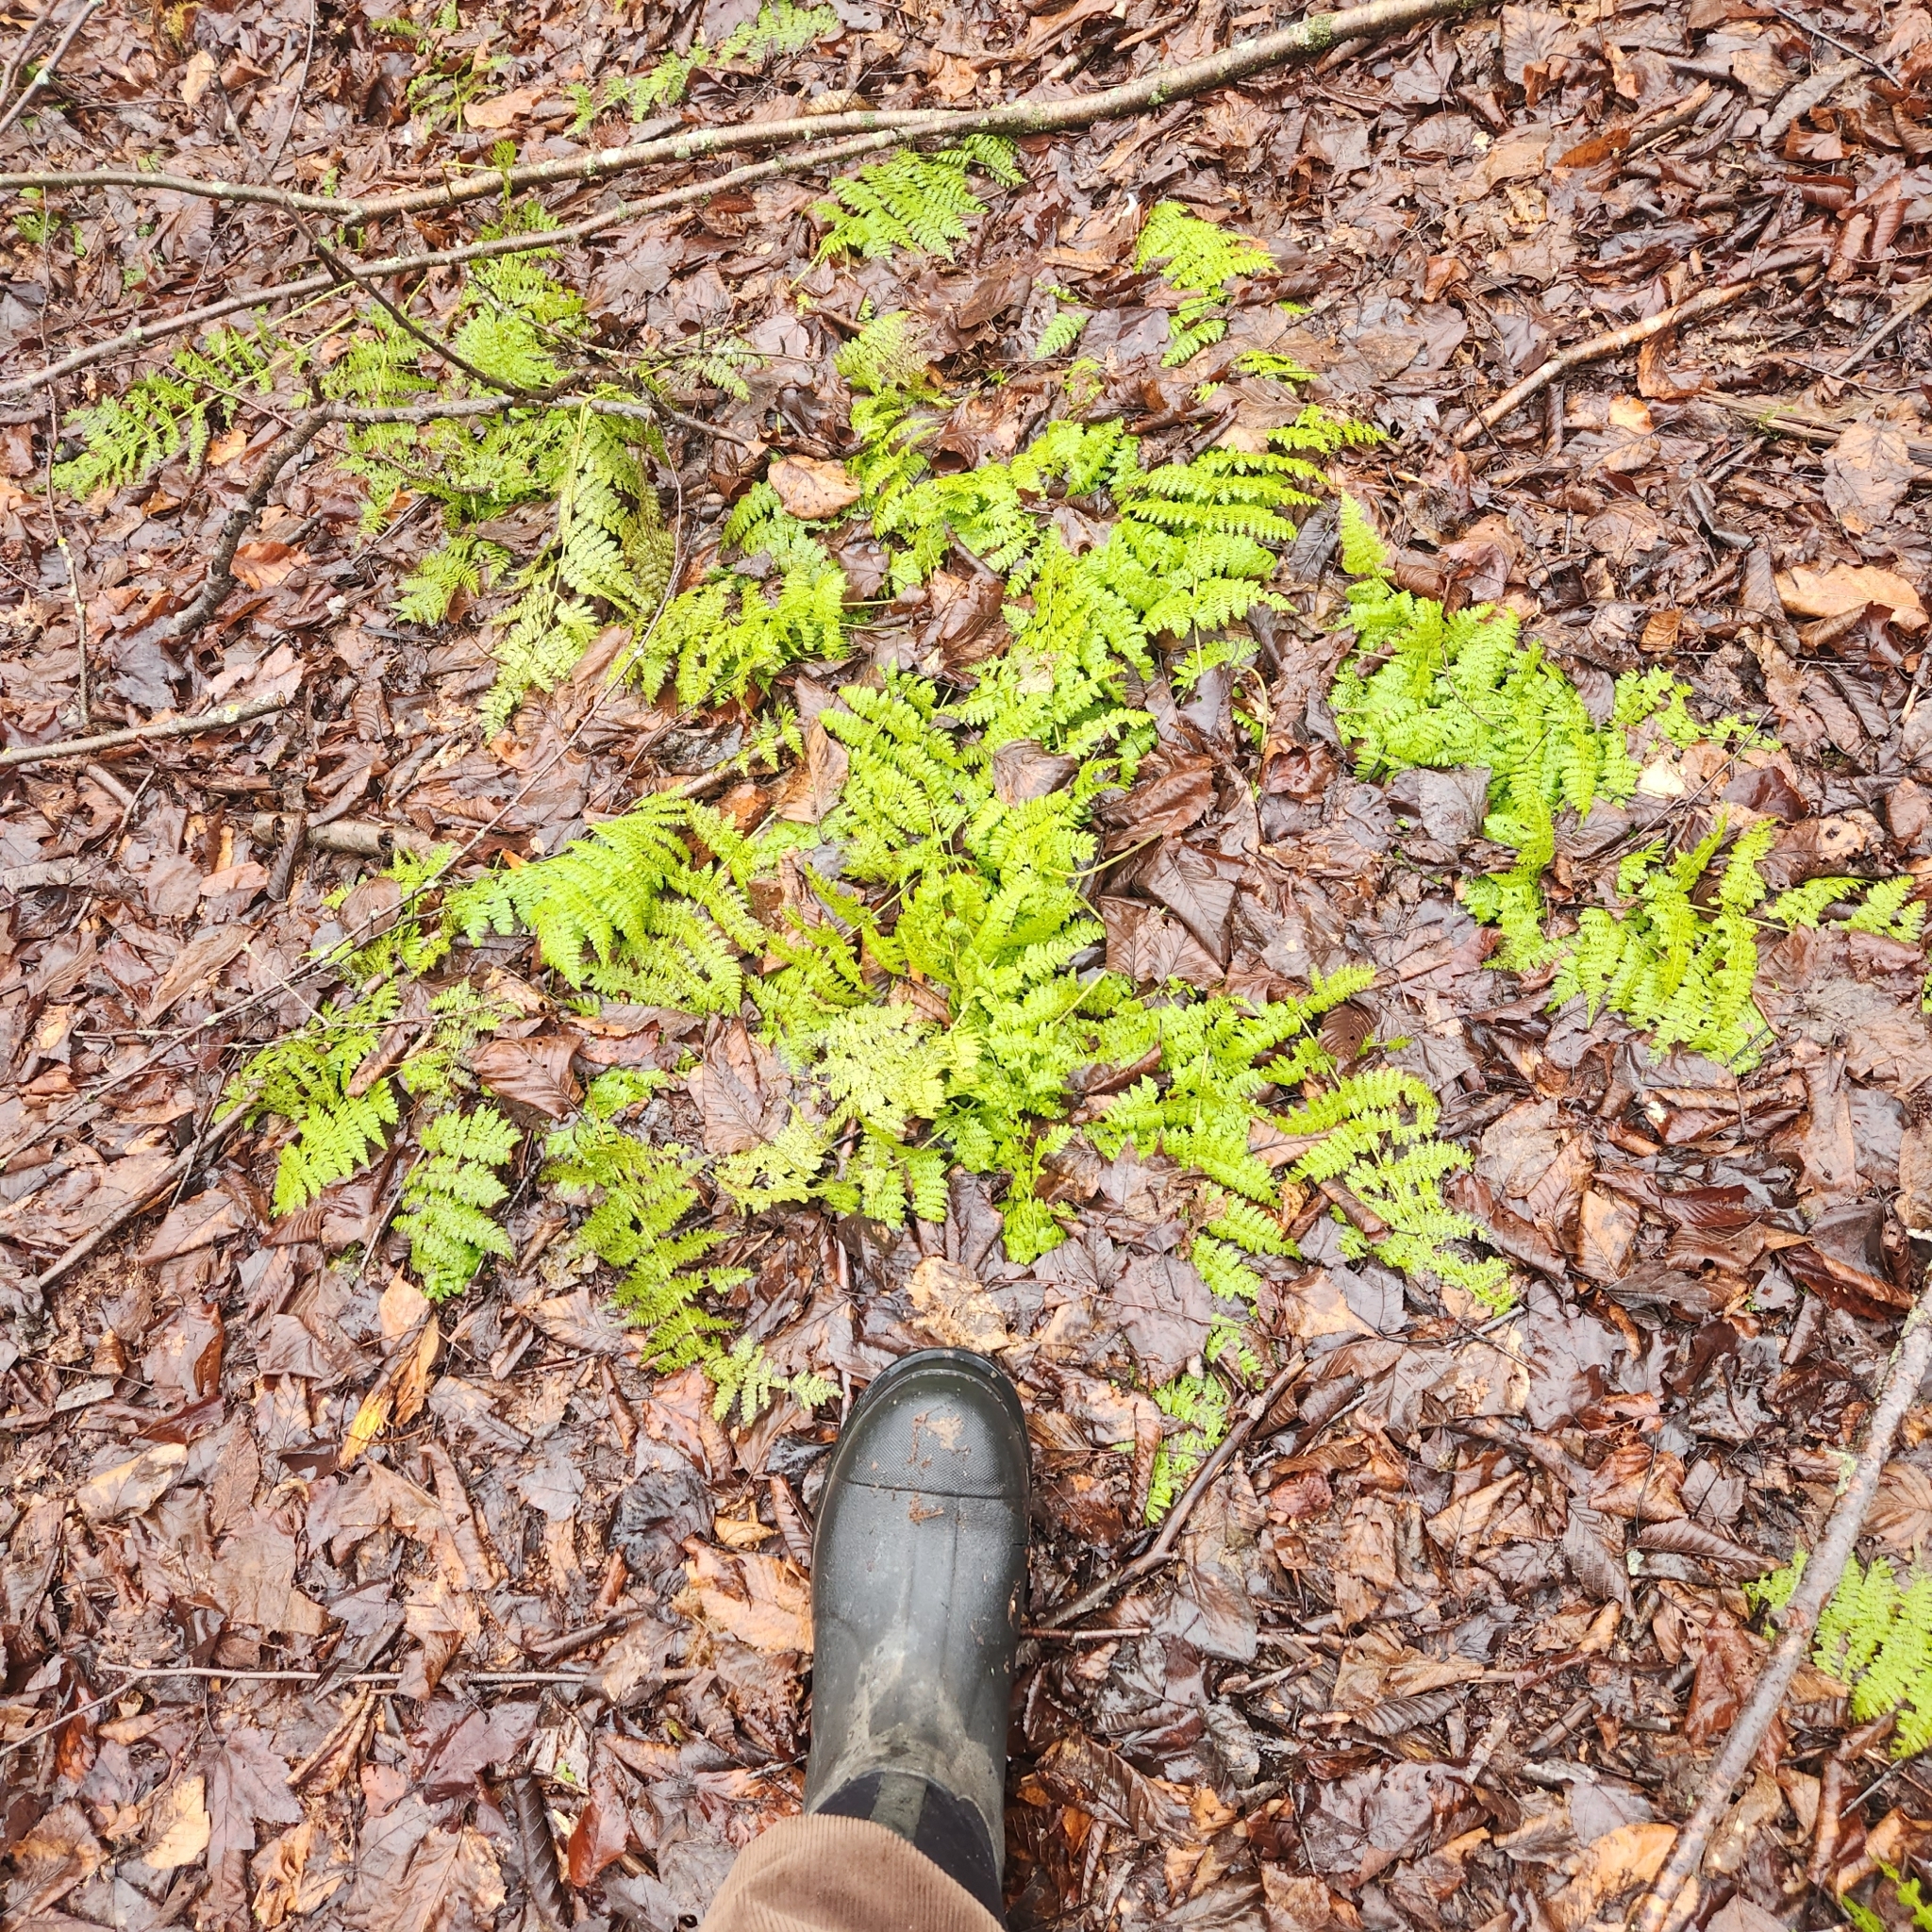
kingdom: Plantae
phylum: Tracheophyta
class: Polypodiopsida
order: Polypodiales
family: Dryopteridaceae
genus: Dryopteris
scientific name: Dryopteris intermedia
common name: Evergreen wood fern
